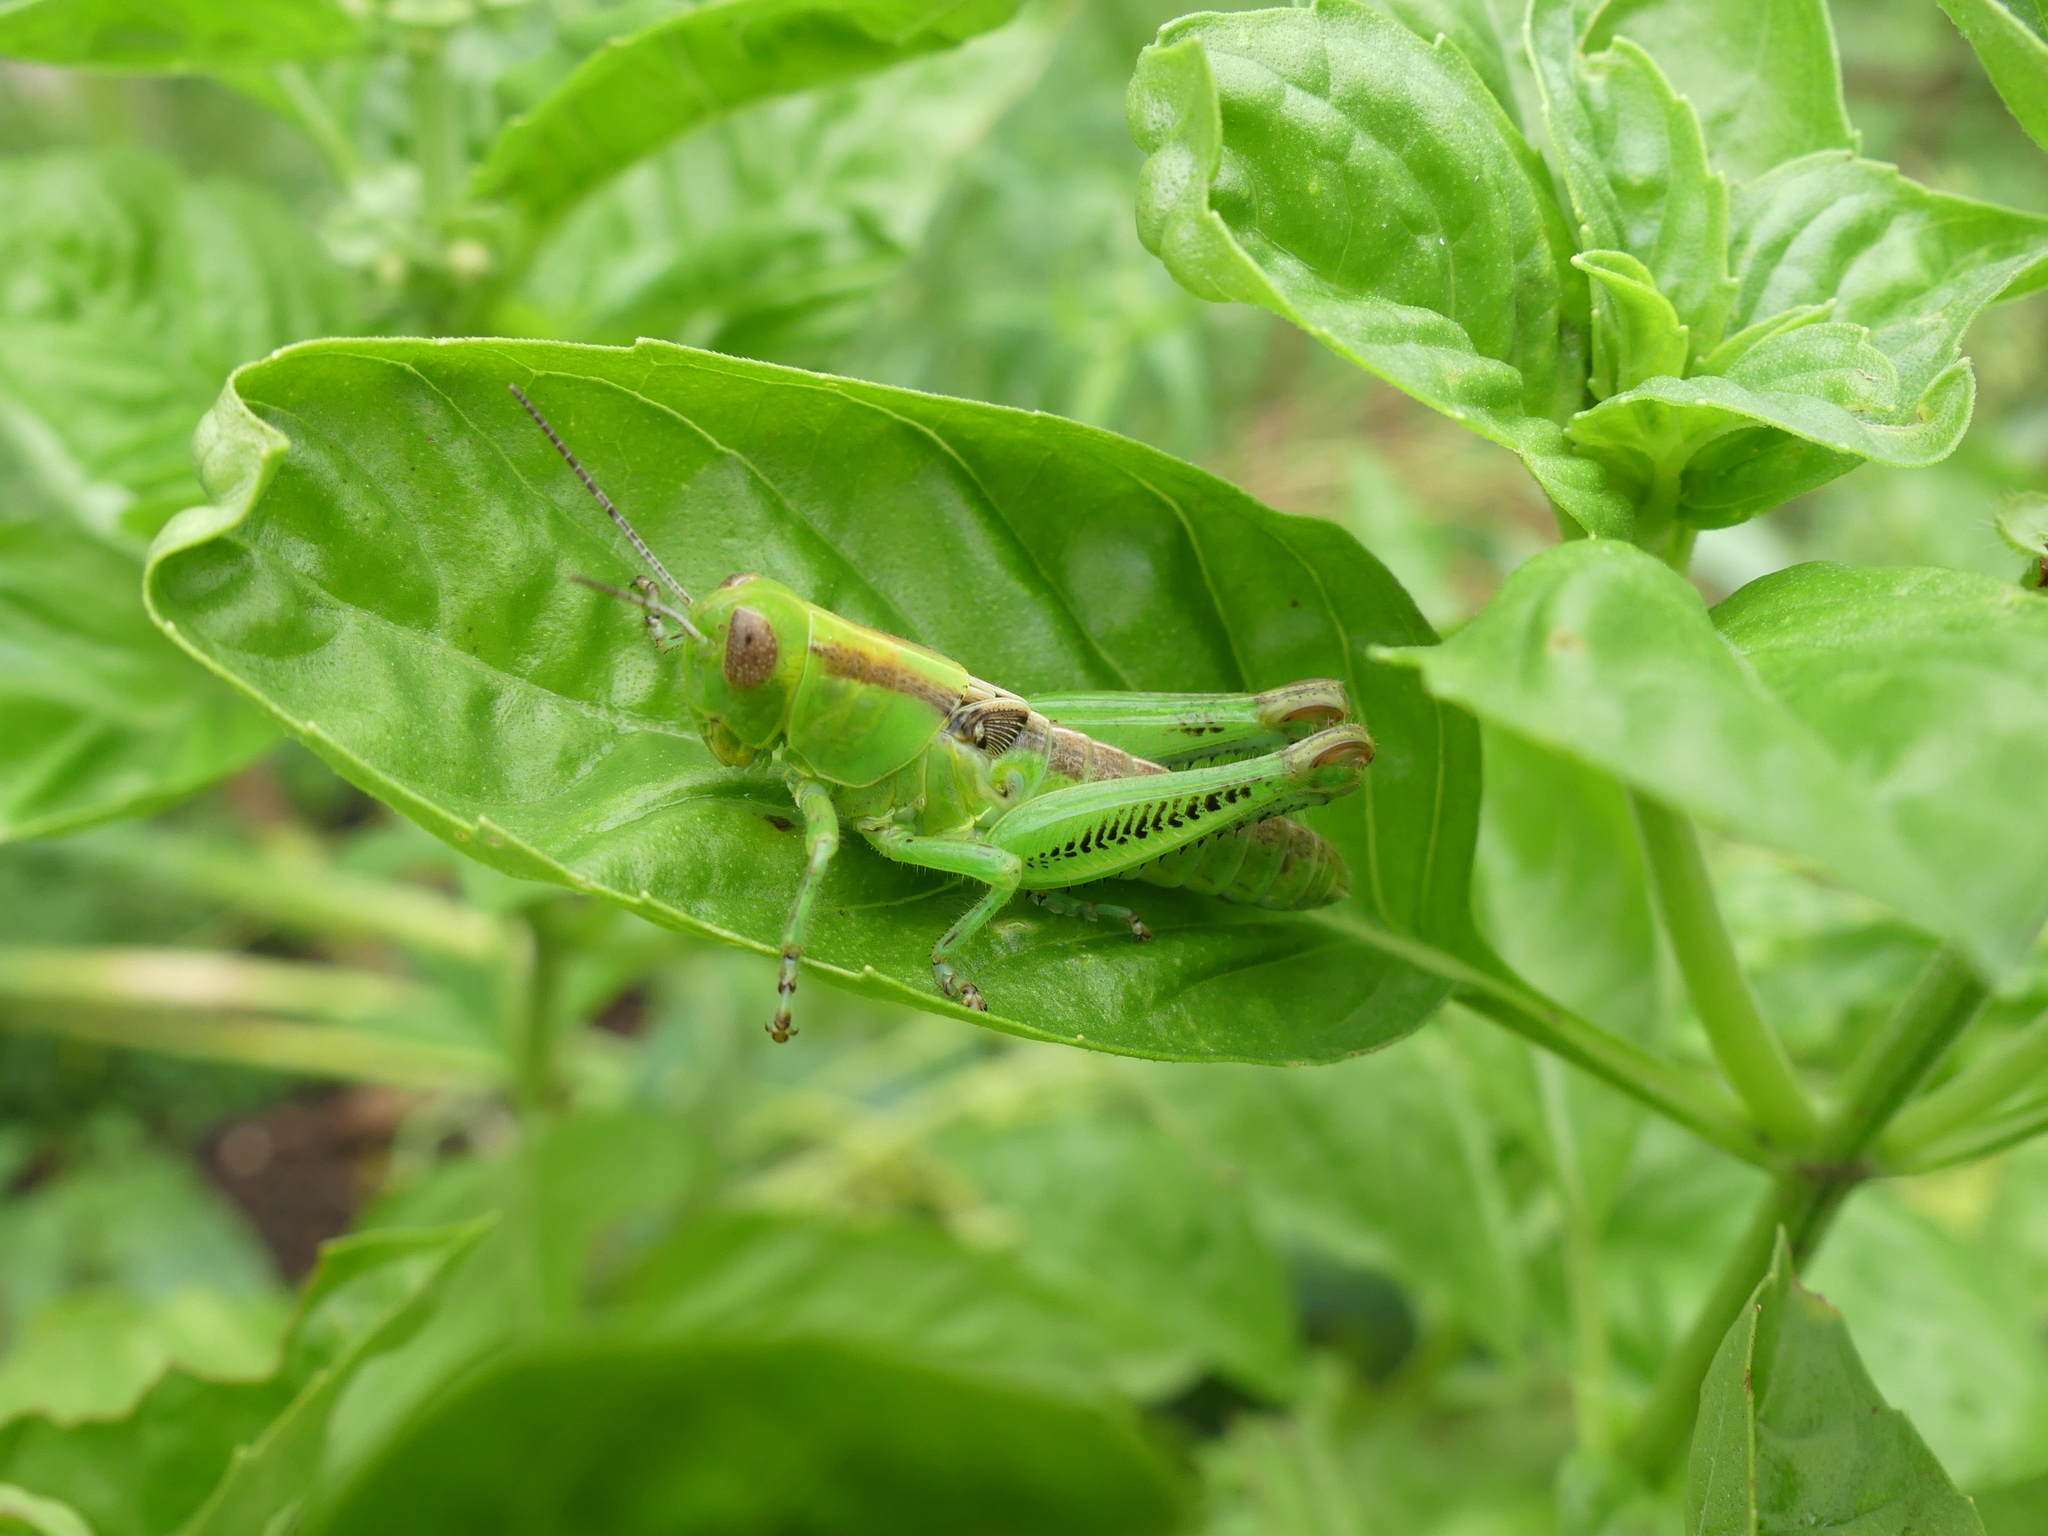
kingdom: Animalia
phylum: Arthropoda
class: Insecta
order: Orthoptera
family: Acrididae
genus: Melanoplus
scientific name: Melanoplus differentialis
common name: Differential grasshopper
